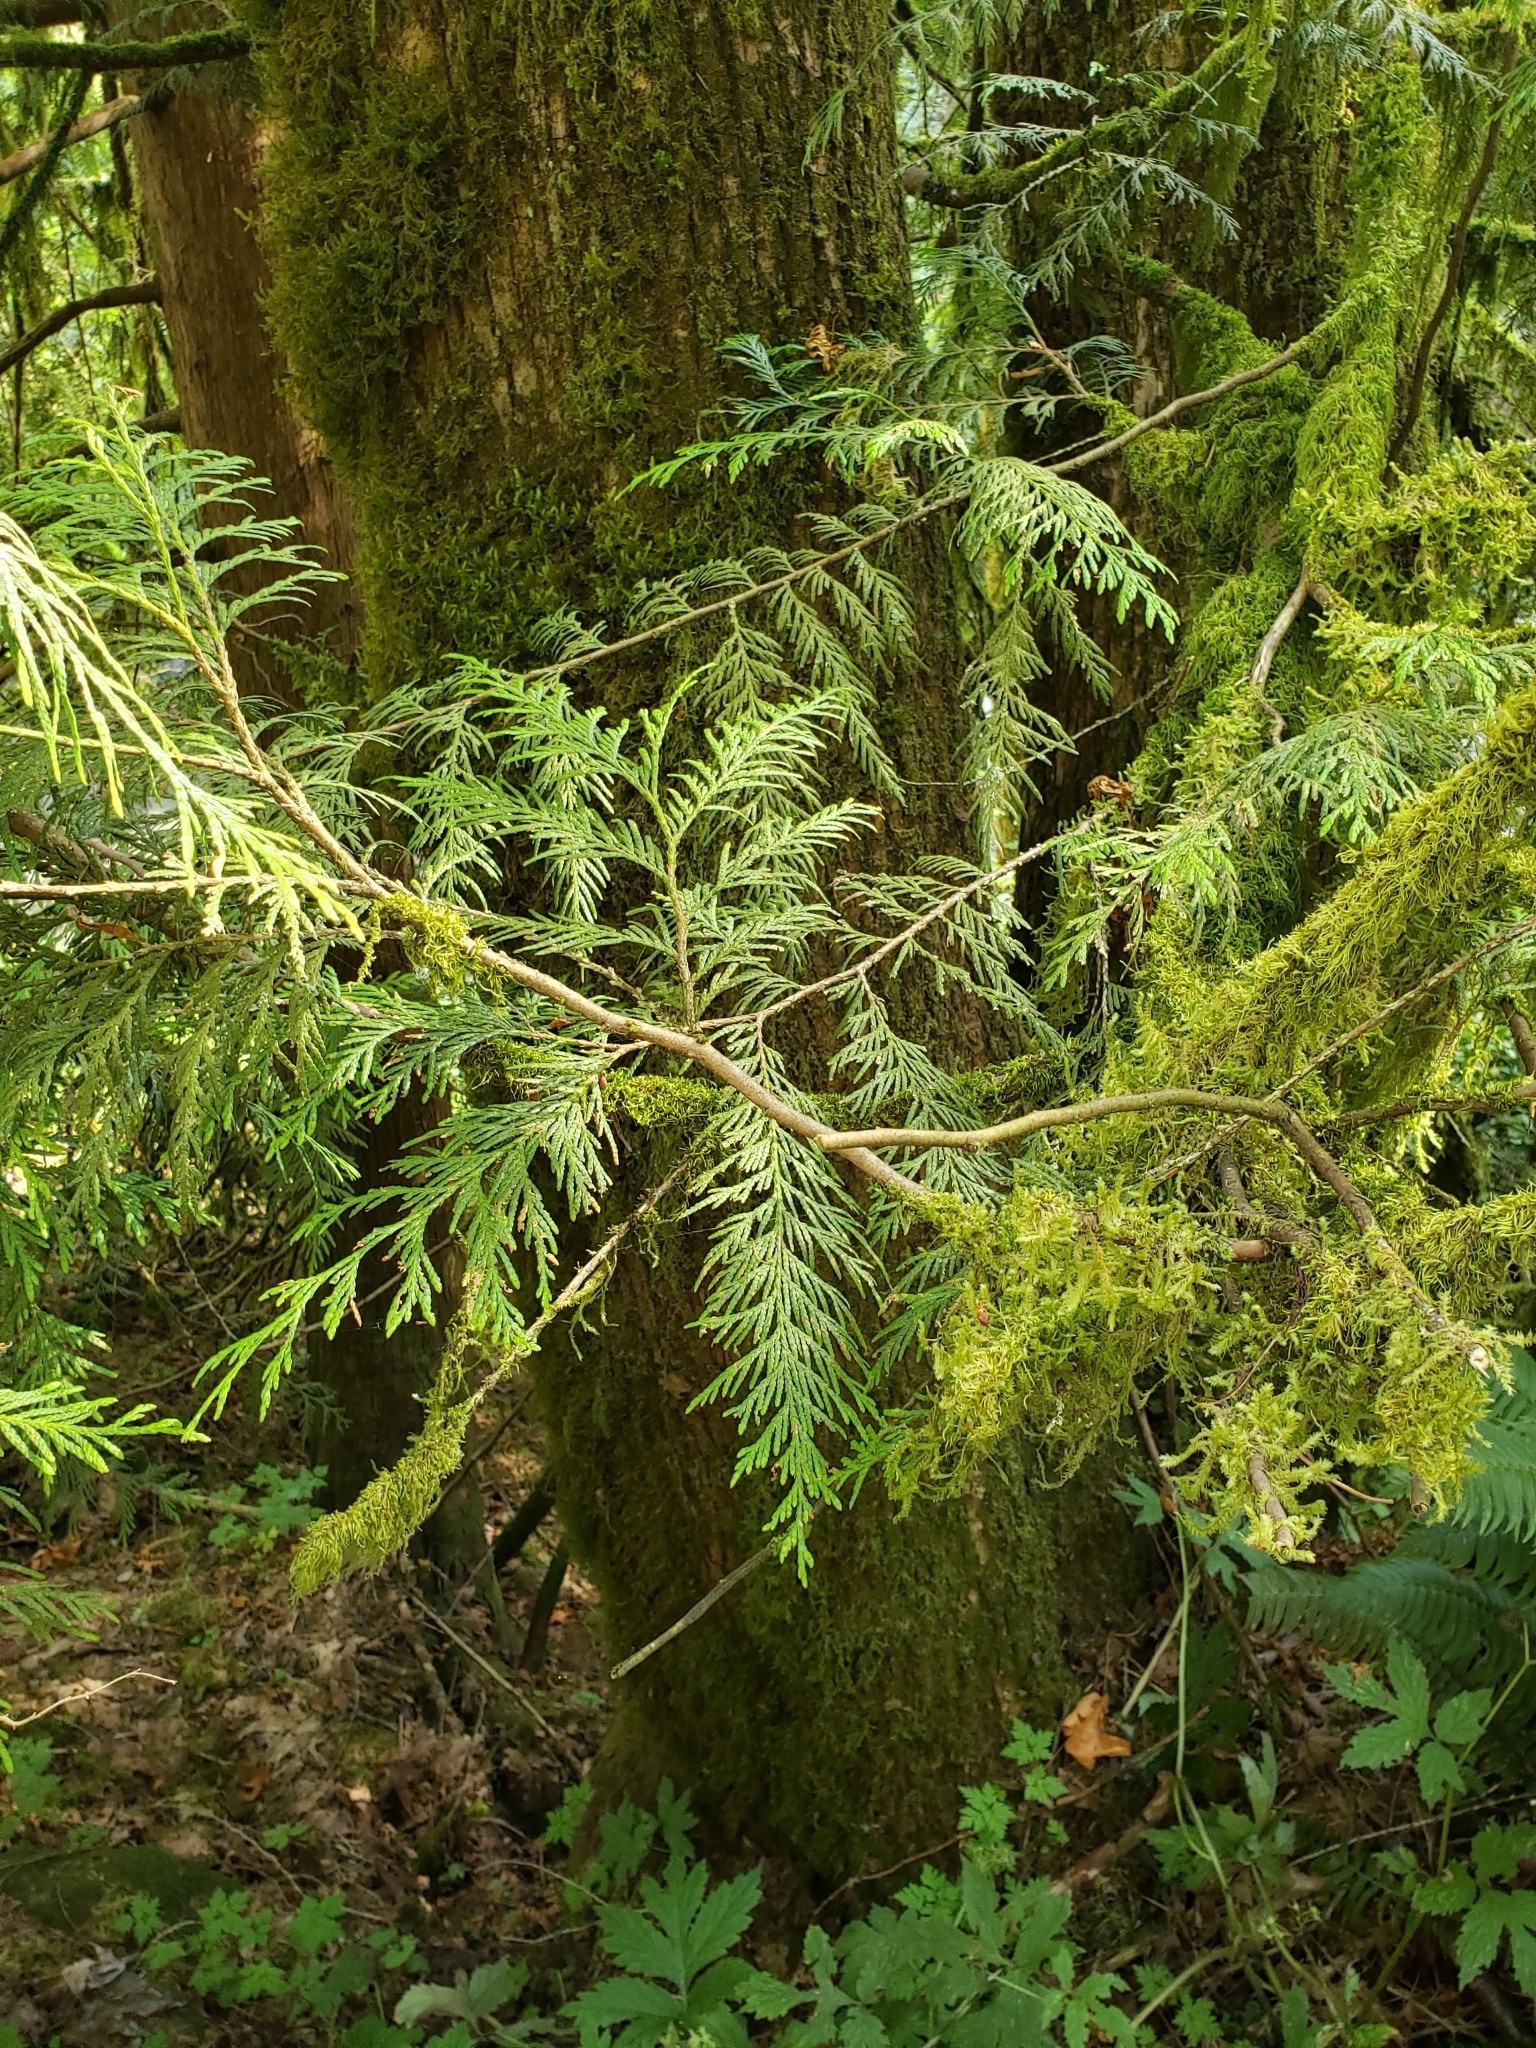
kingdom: Plantae
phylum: Tracheophyta
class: Pinopsida
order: Pinales
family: Cupressaceae
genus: Thuja
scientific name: Thuja plicata
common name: Western red-cedar
